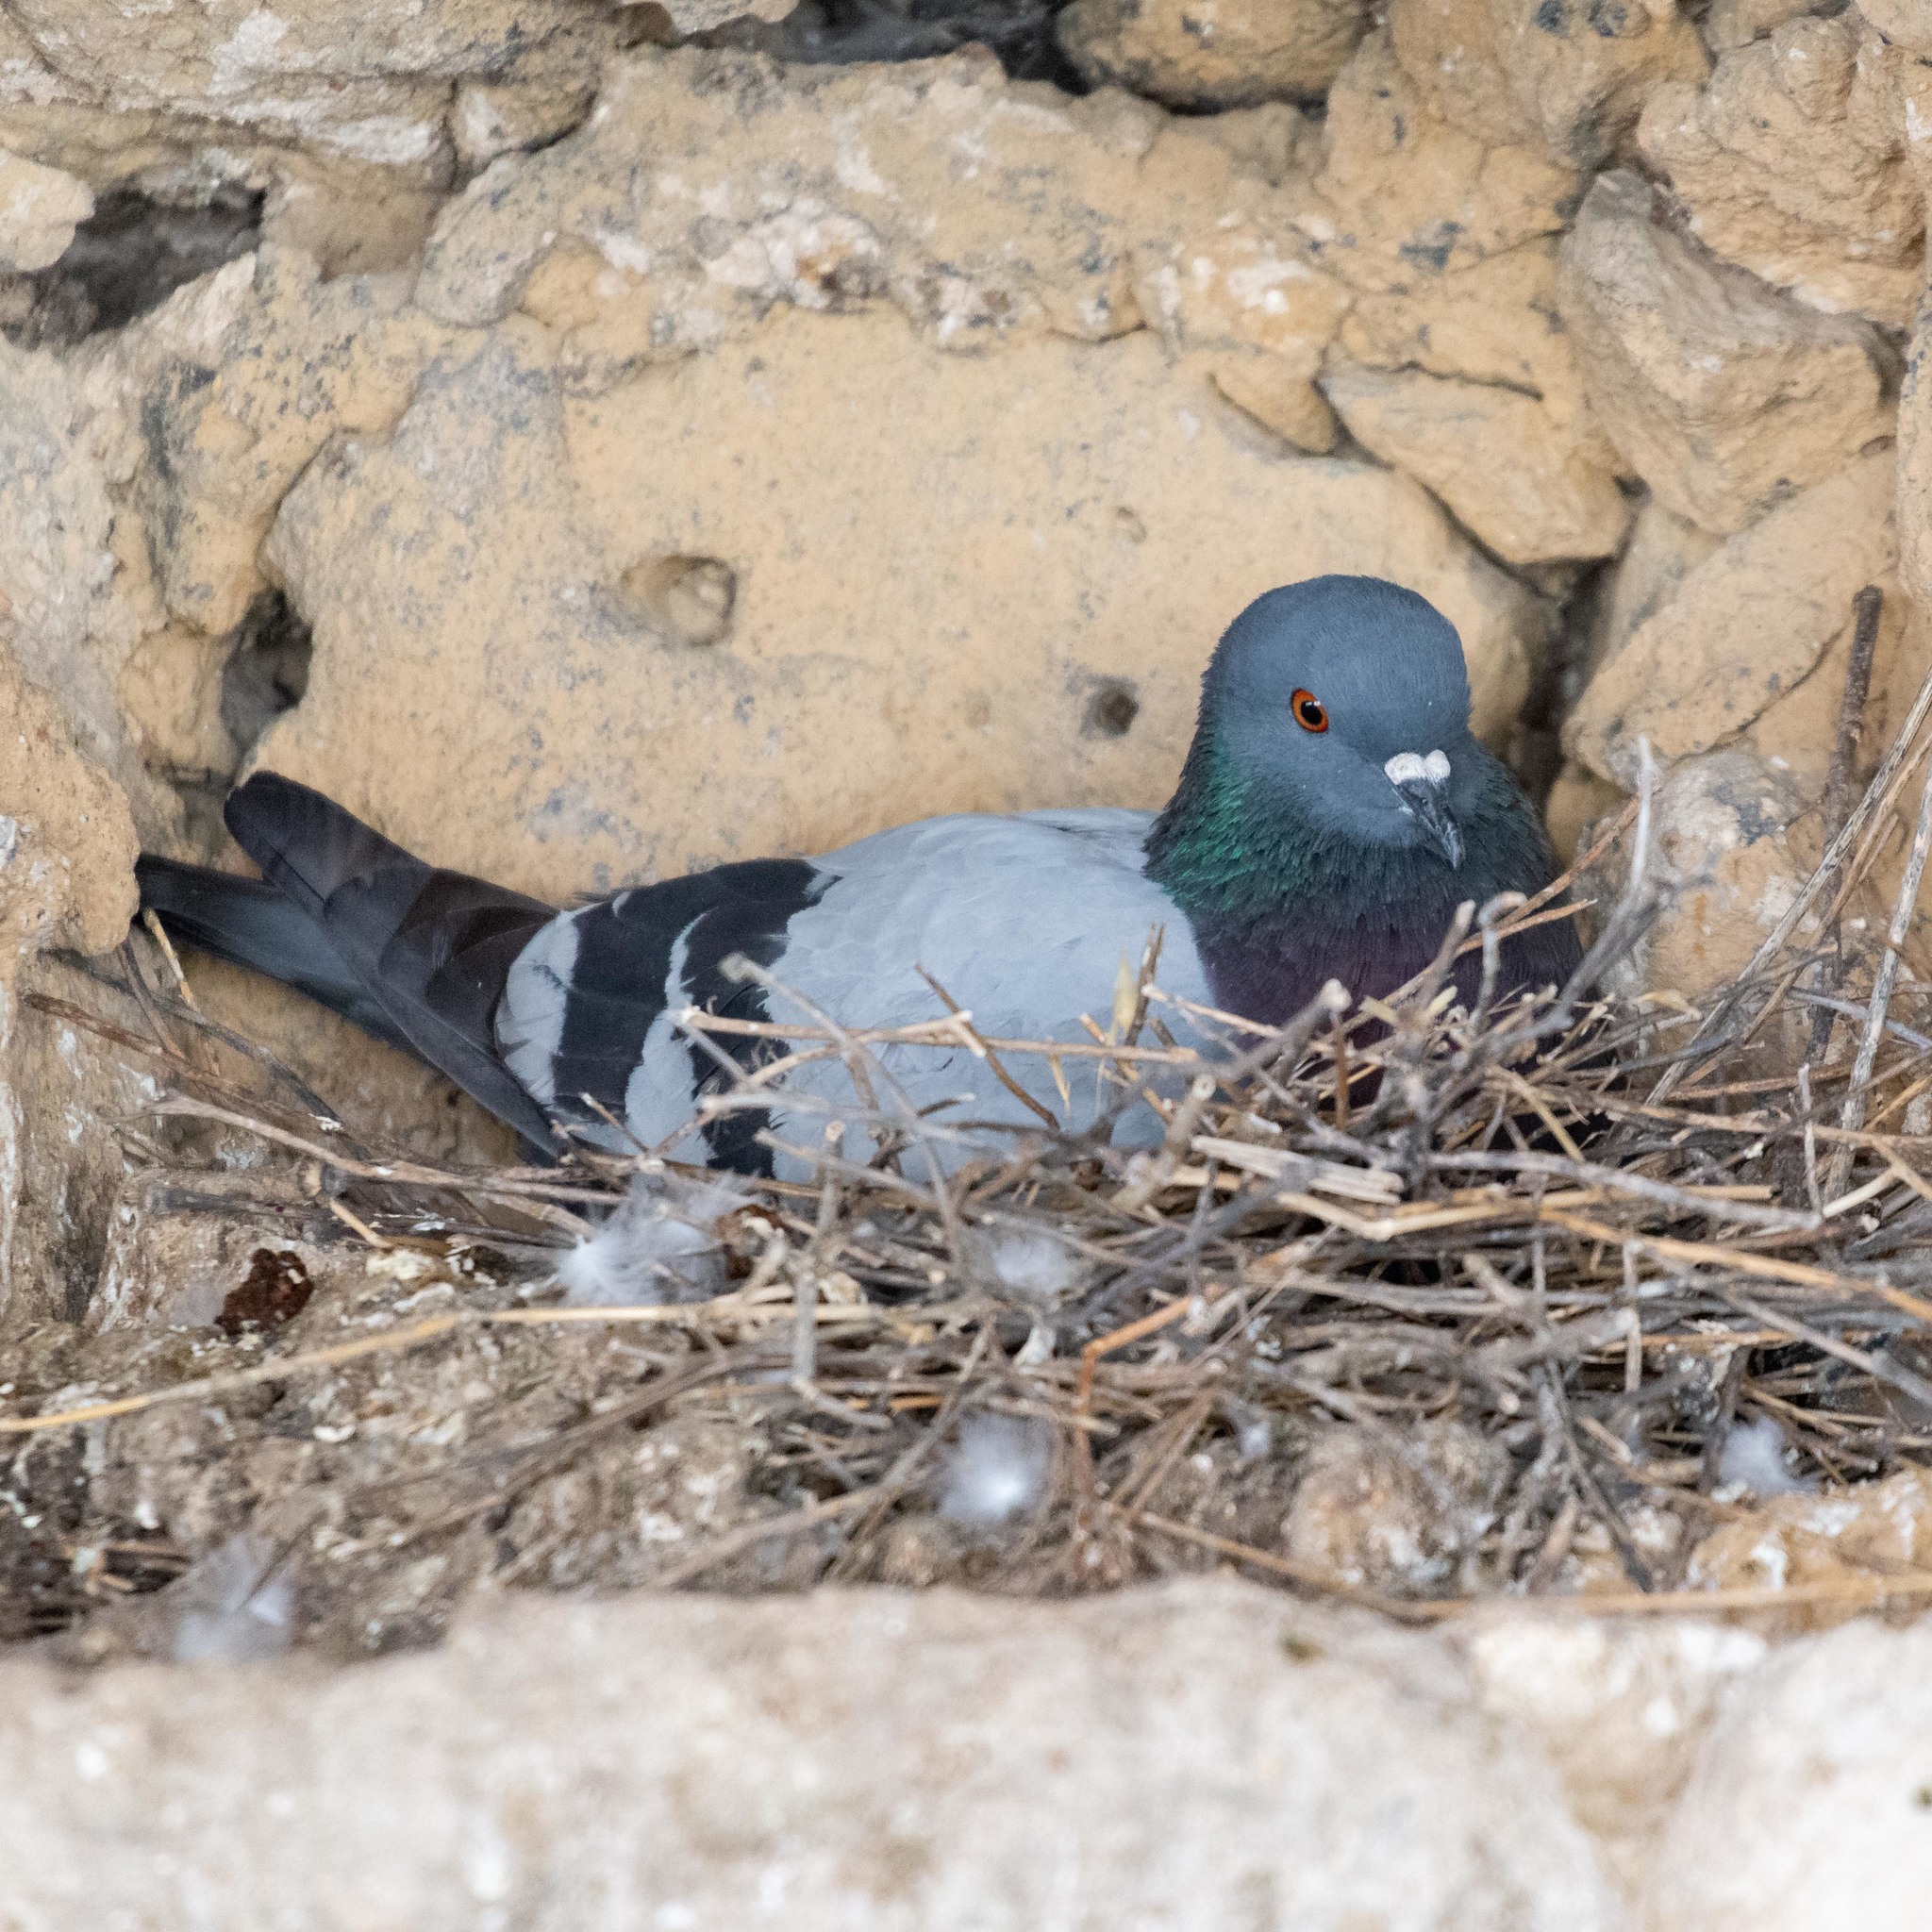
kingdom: Animalia
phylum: Chordata
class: Aves
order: Columbiformes
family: Columbidae
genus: Columba
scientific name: Columba livia
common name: Rock pigeon
